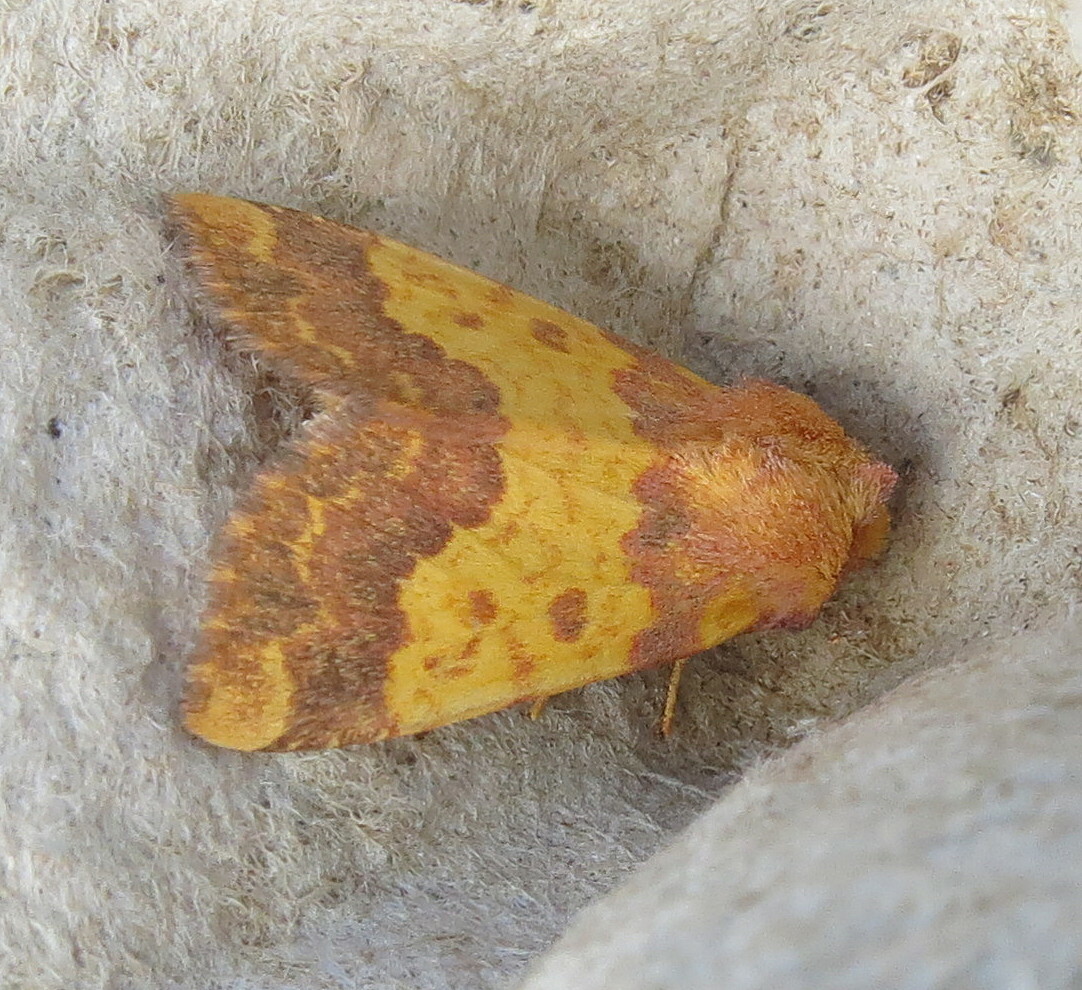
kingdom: Animalia
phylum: Arthropoda
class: Insecta
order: Lepidoptera
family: Noctuidae
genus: Tiliacea
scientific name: Tiliacea aurago
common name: Barred sallow
